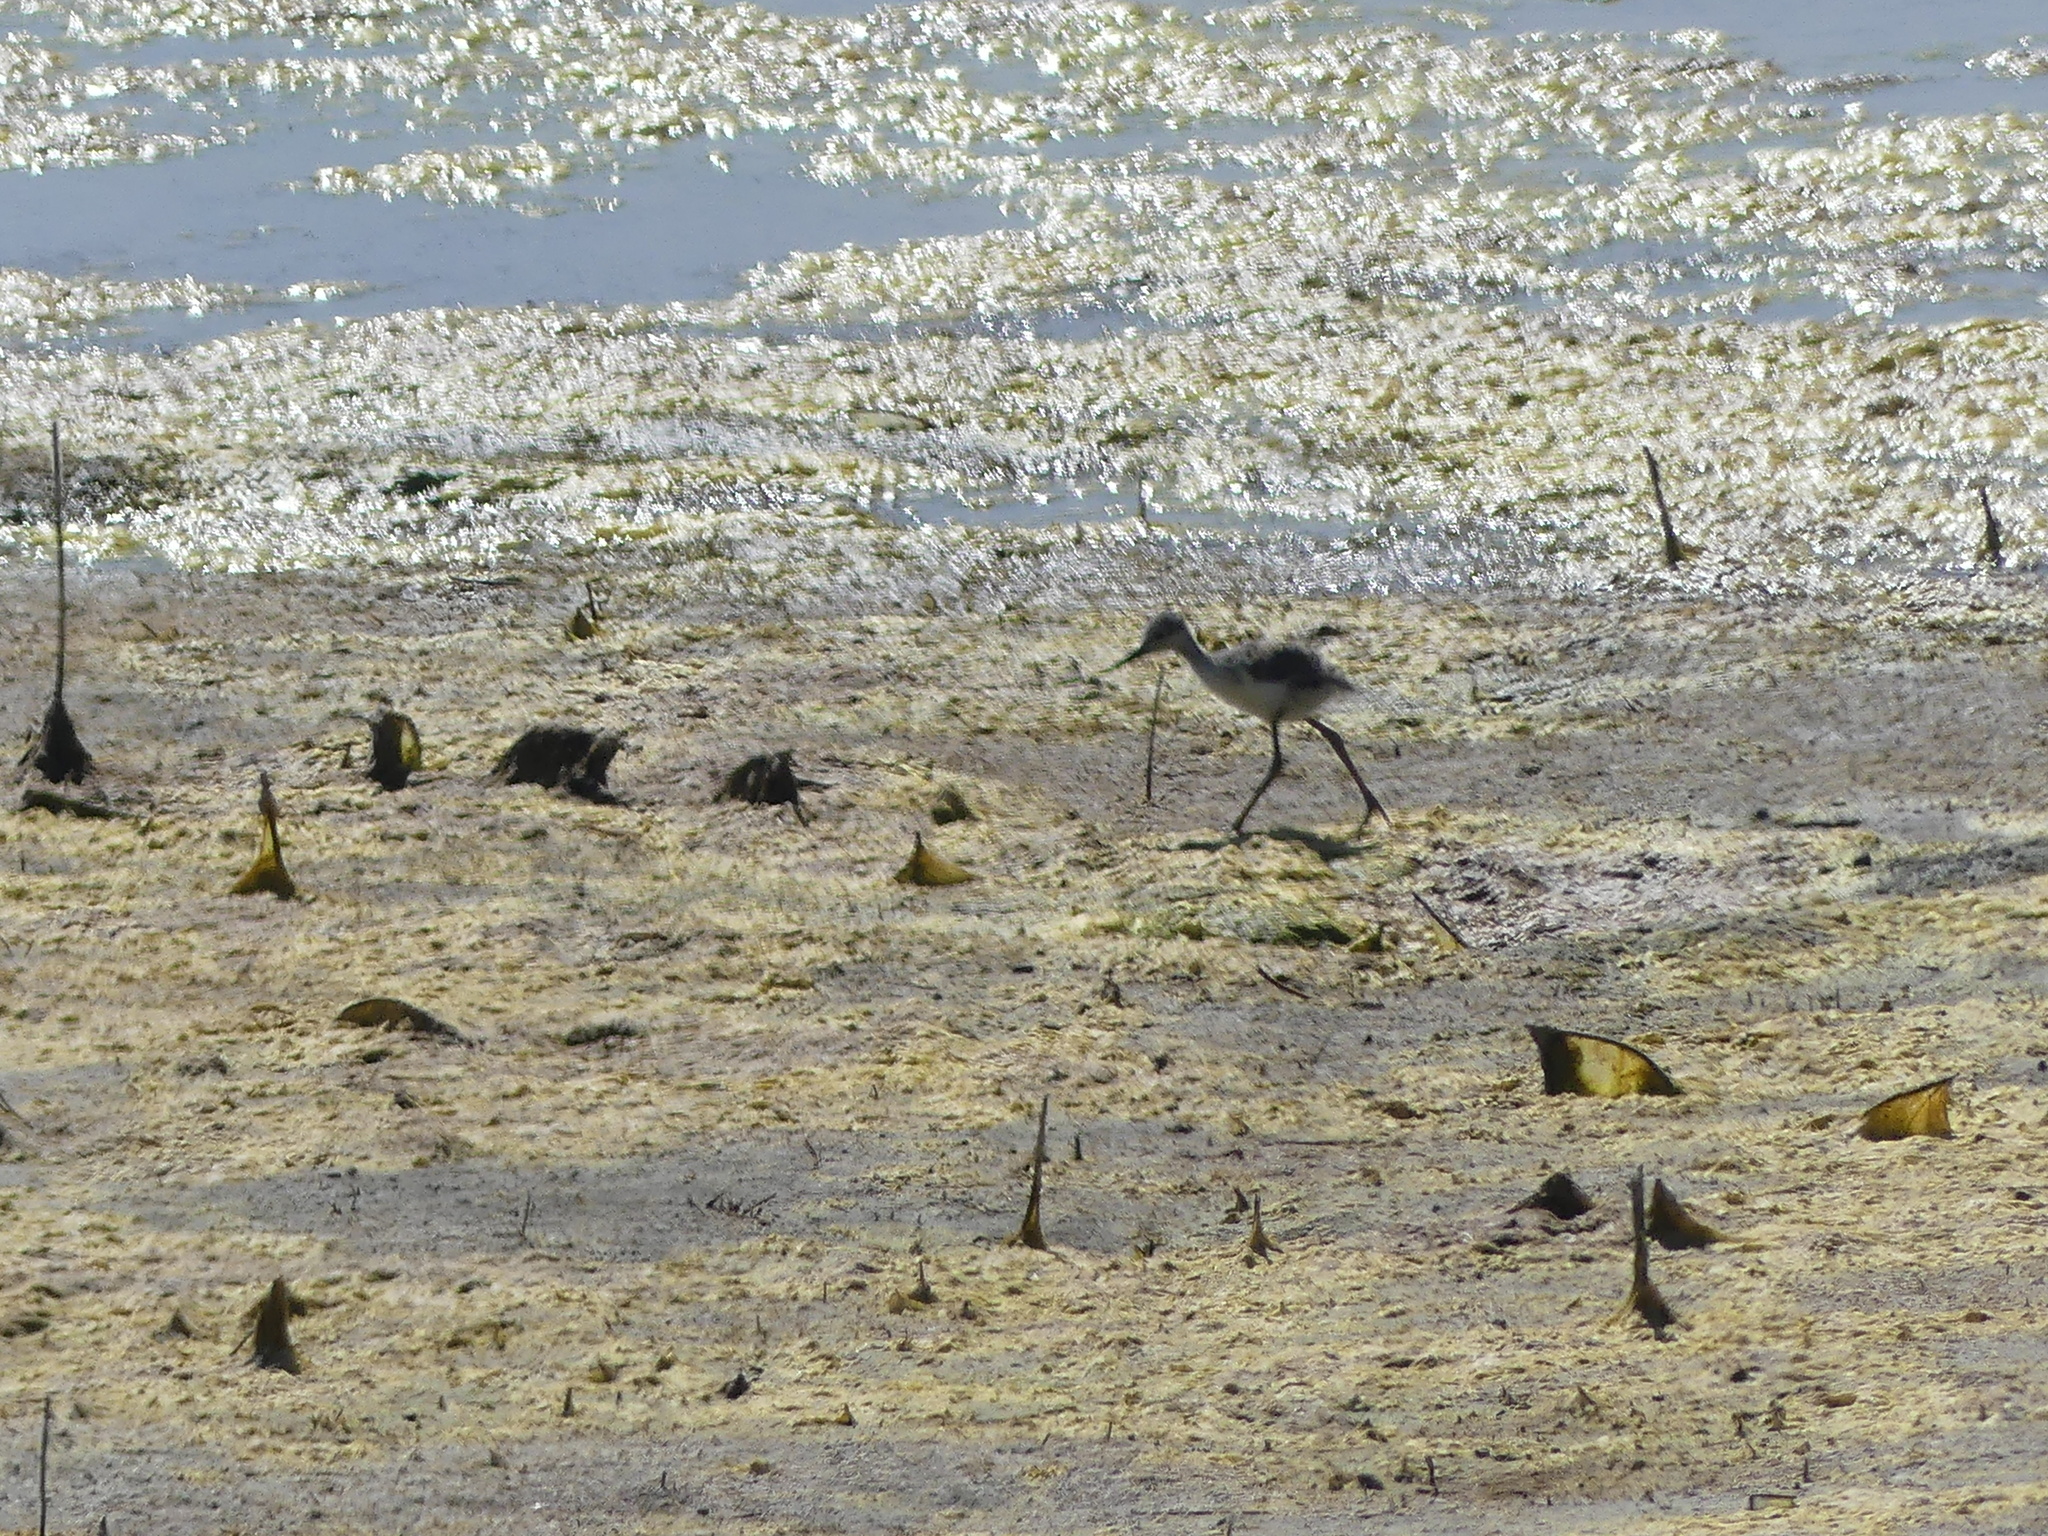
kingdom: Animalia
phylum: Chordata
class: Aves
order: Charadriiformes
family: Recurvirostridae
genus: Himantopus
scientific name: Himantopus mexicanus
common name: Black-necked stilt
